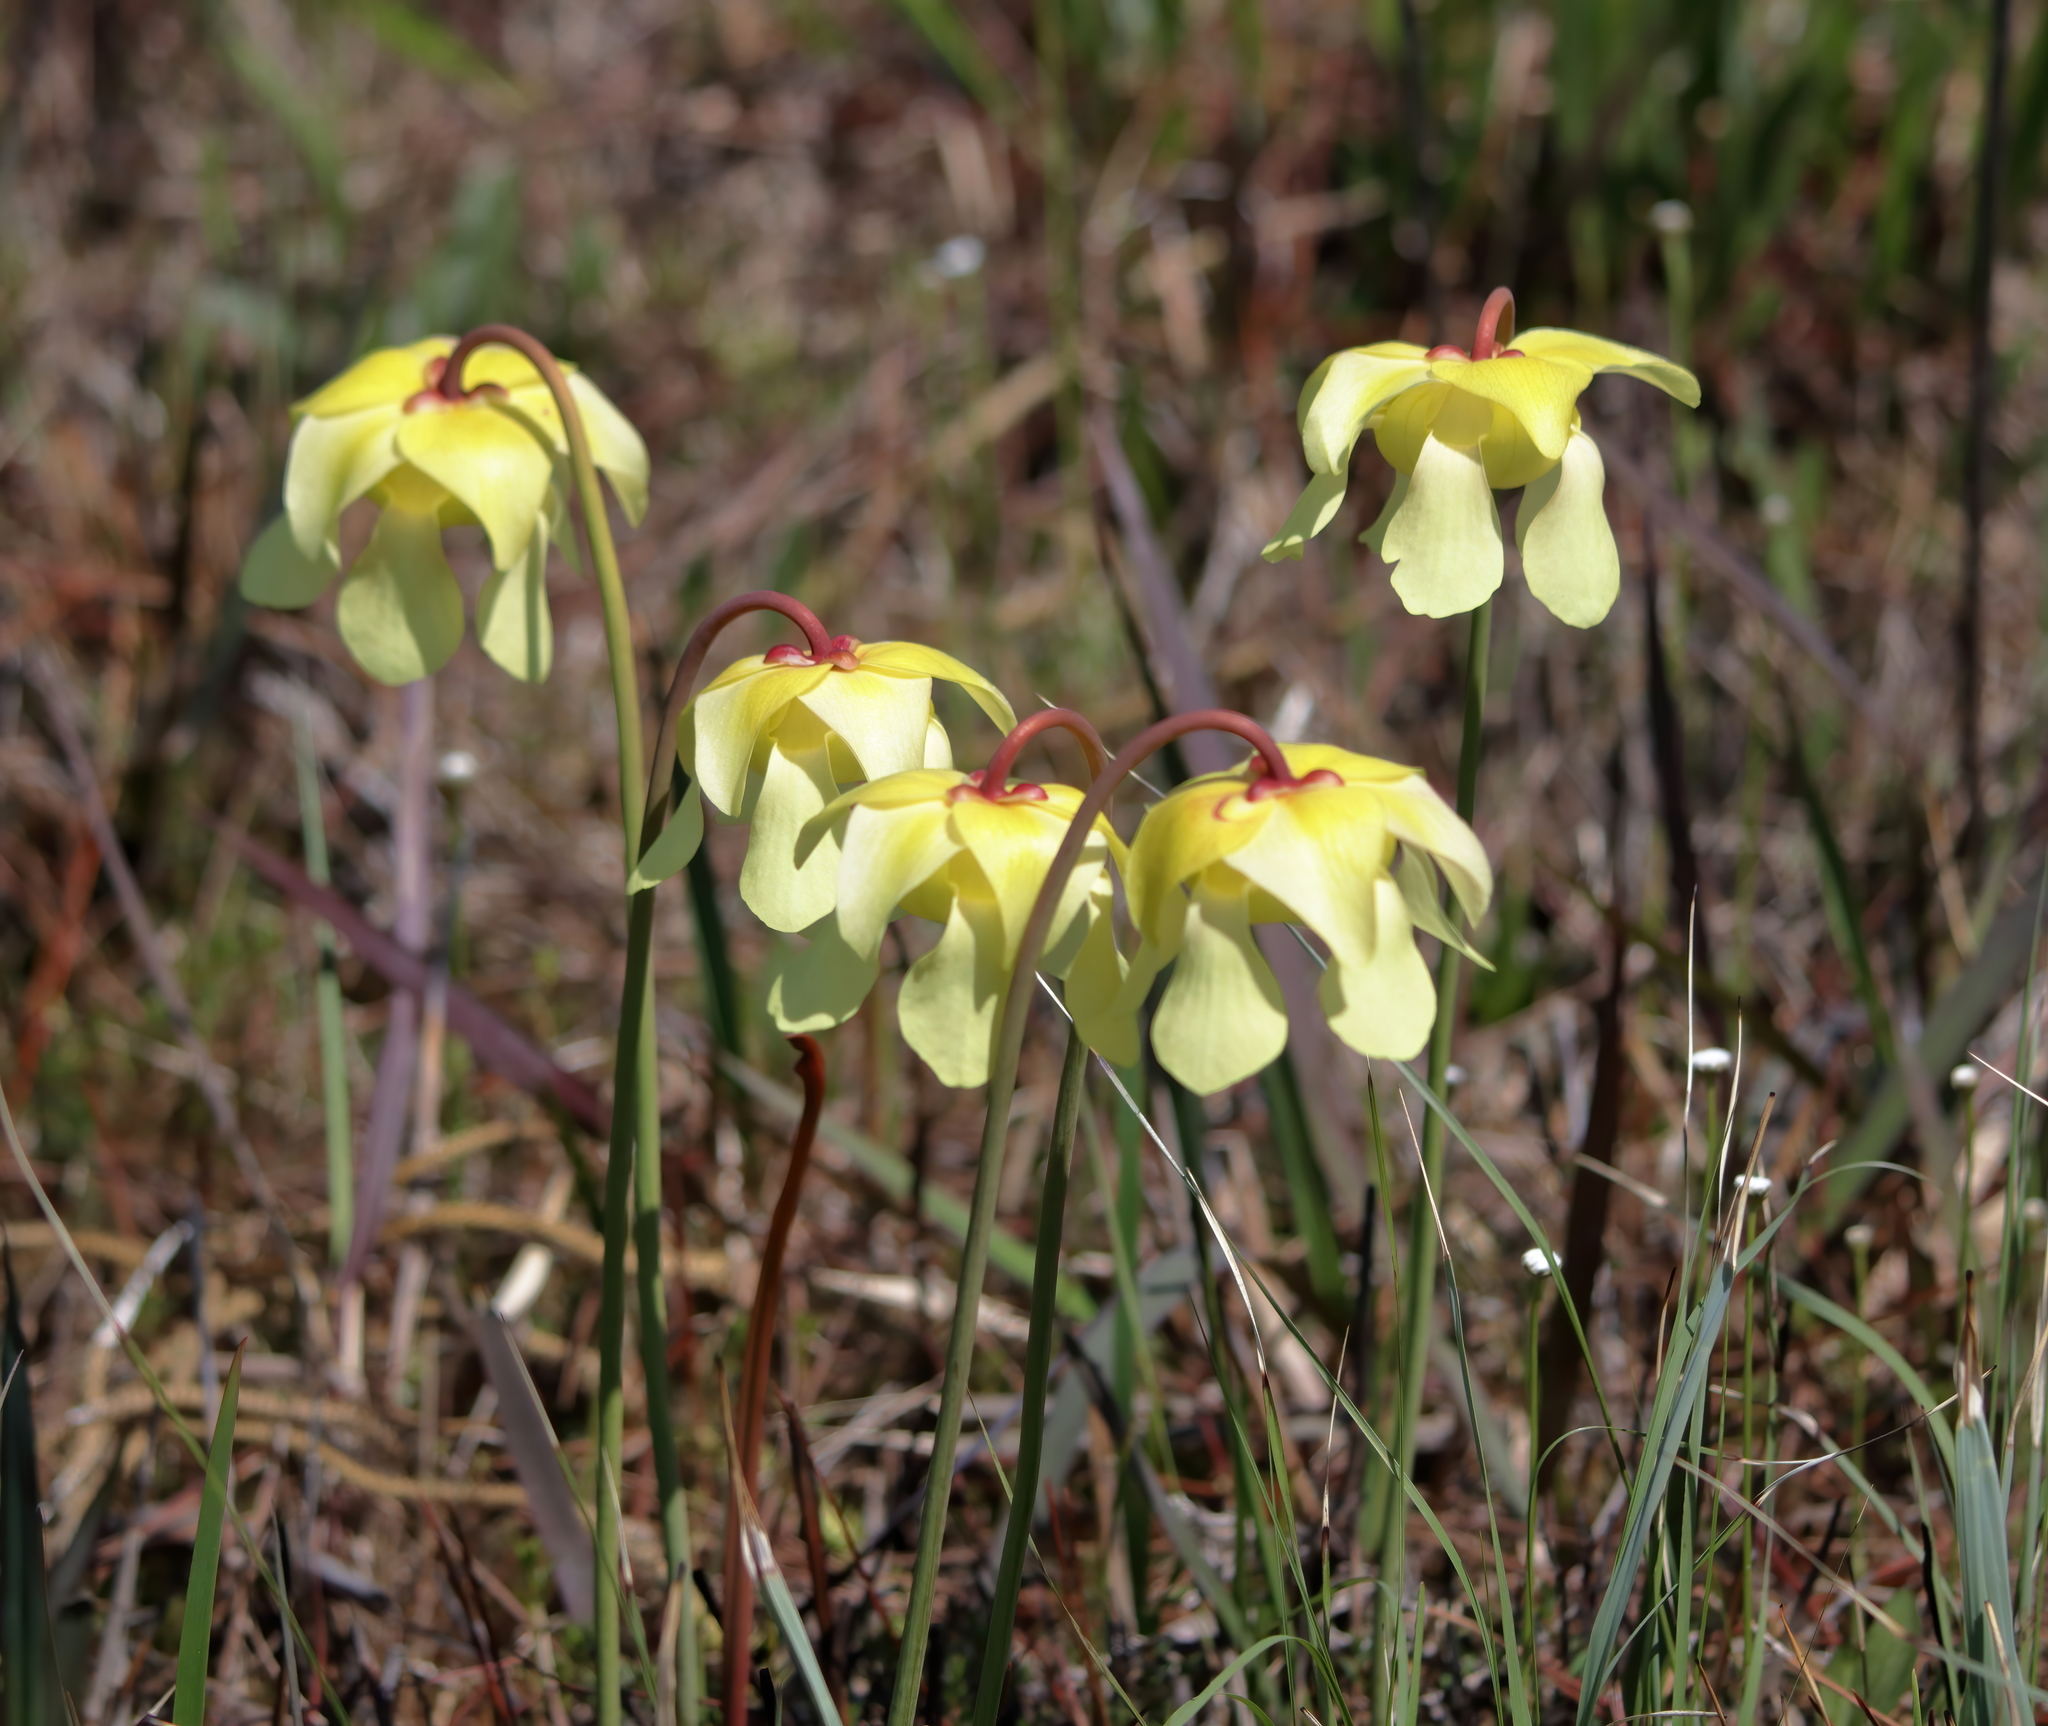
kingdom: Plantae
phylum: Tracheophyta
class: Magnoliopsida
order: Ericales
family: Sarraceniaceae
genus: Sarracenia
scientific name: Sarracenia alata
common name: Yellow trumpets
